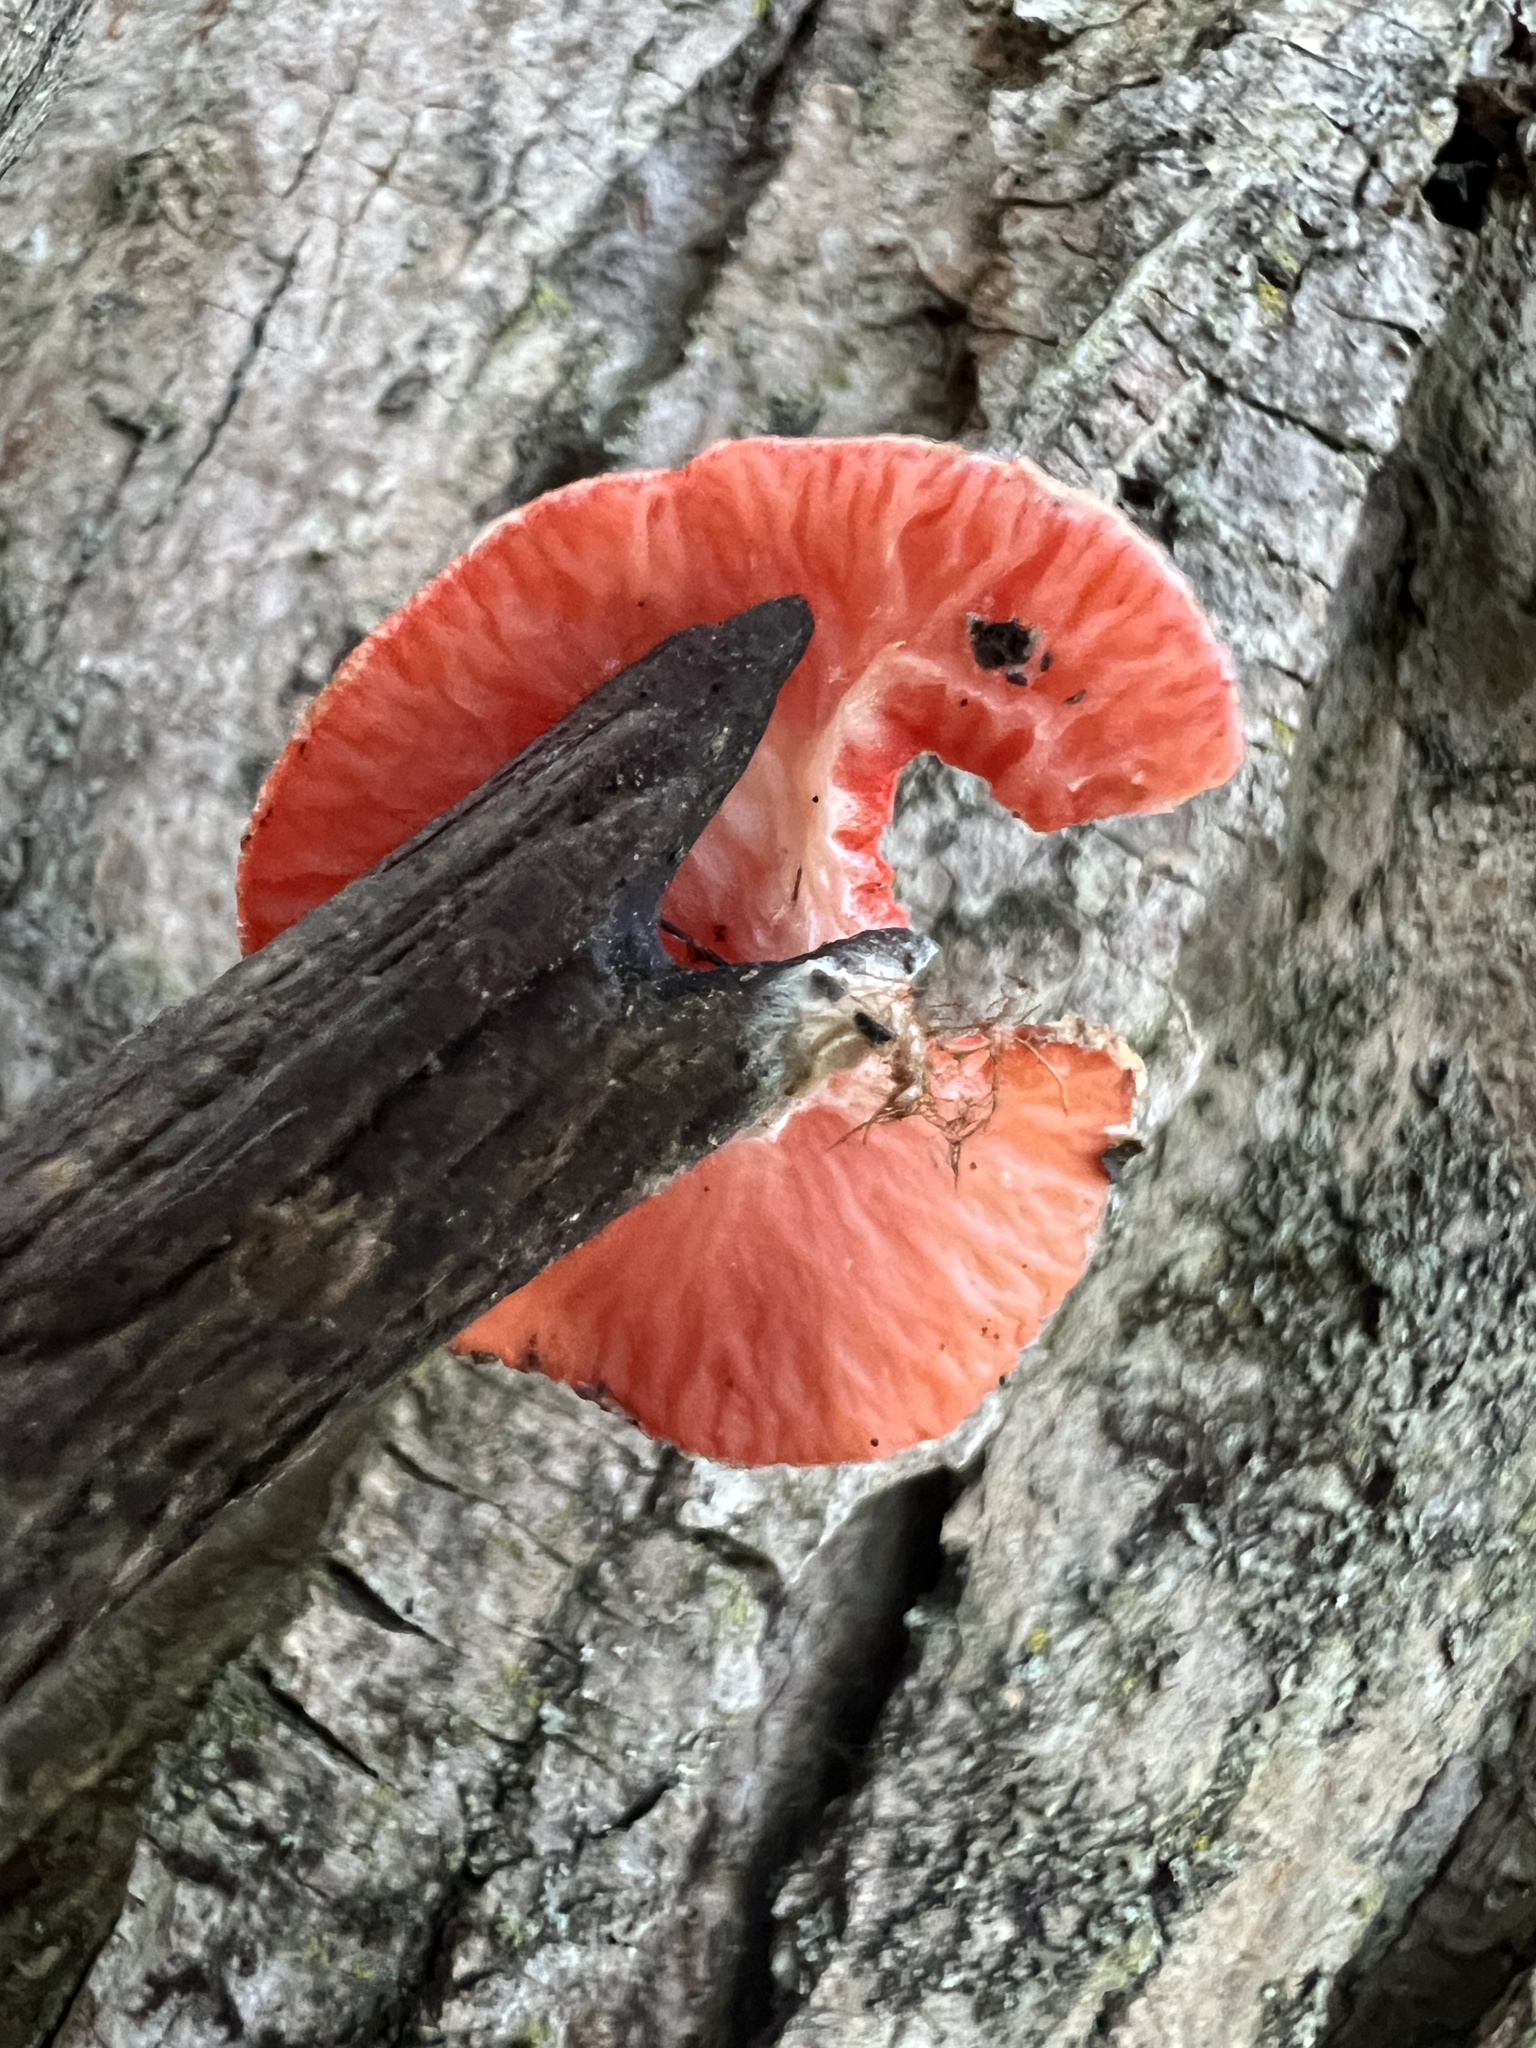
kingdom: Fungi
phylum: Ascomycota
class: Pezizomycetes
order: Pezizales
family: Sarcoscyphaceae
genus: Sarcoscypha
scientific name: Sarcoscypha occidentalis
